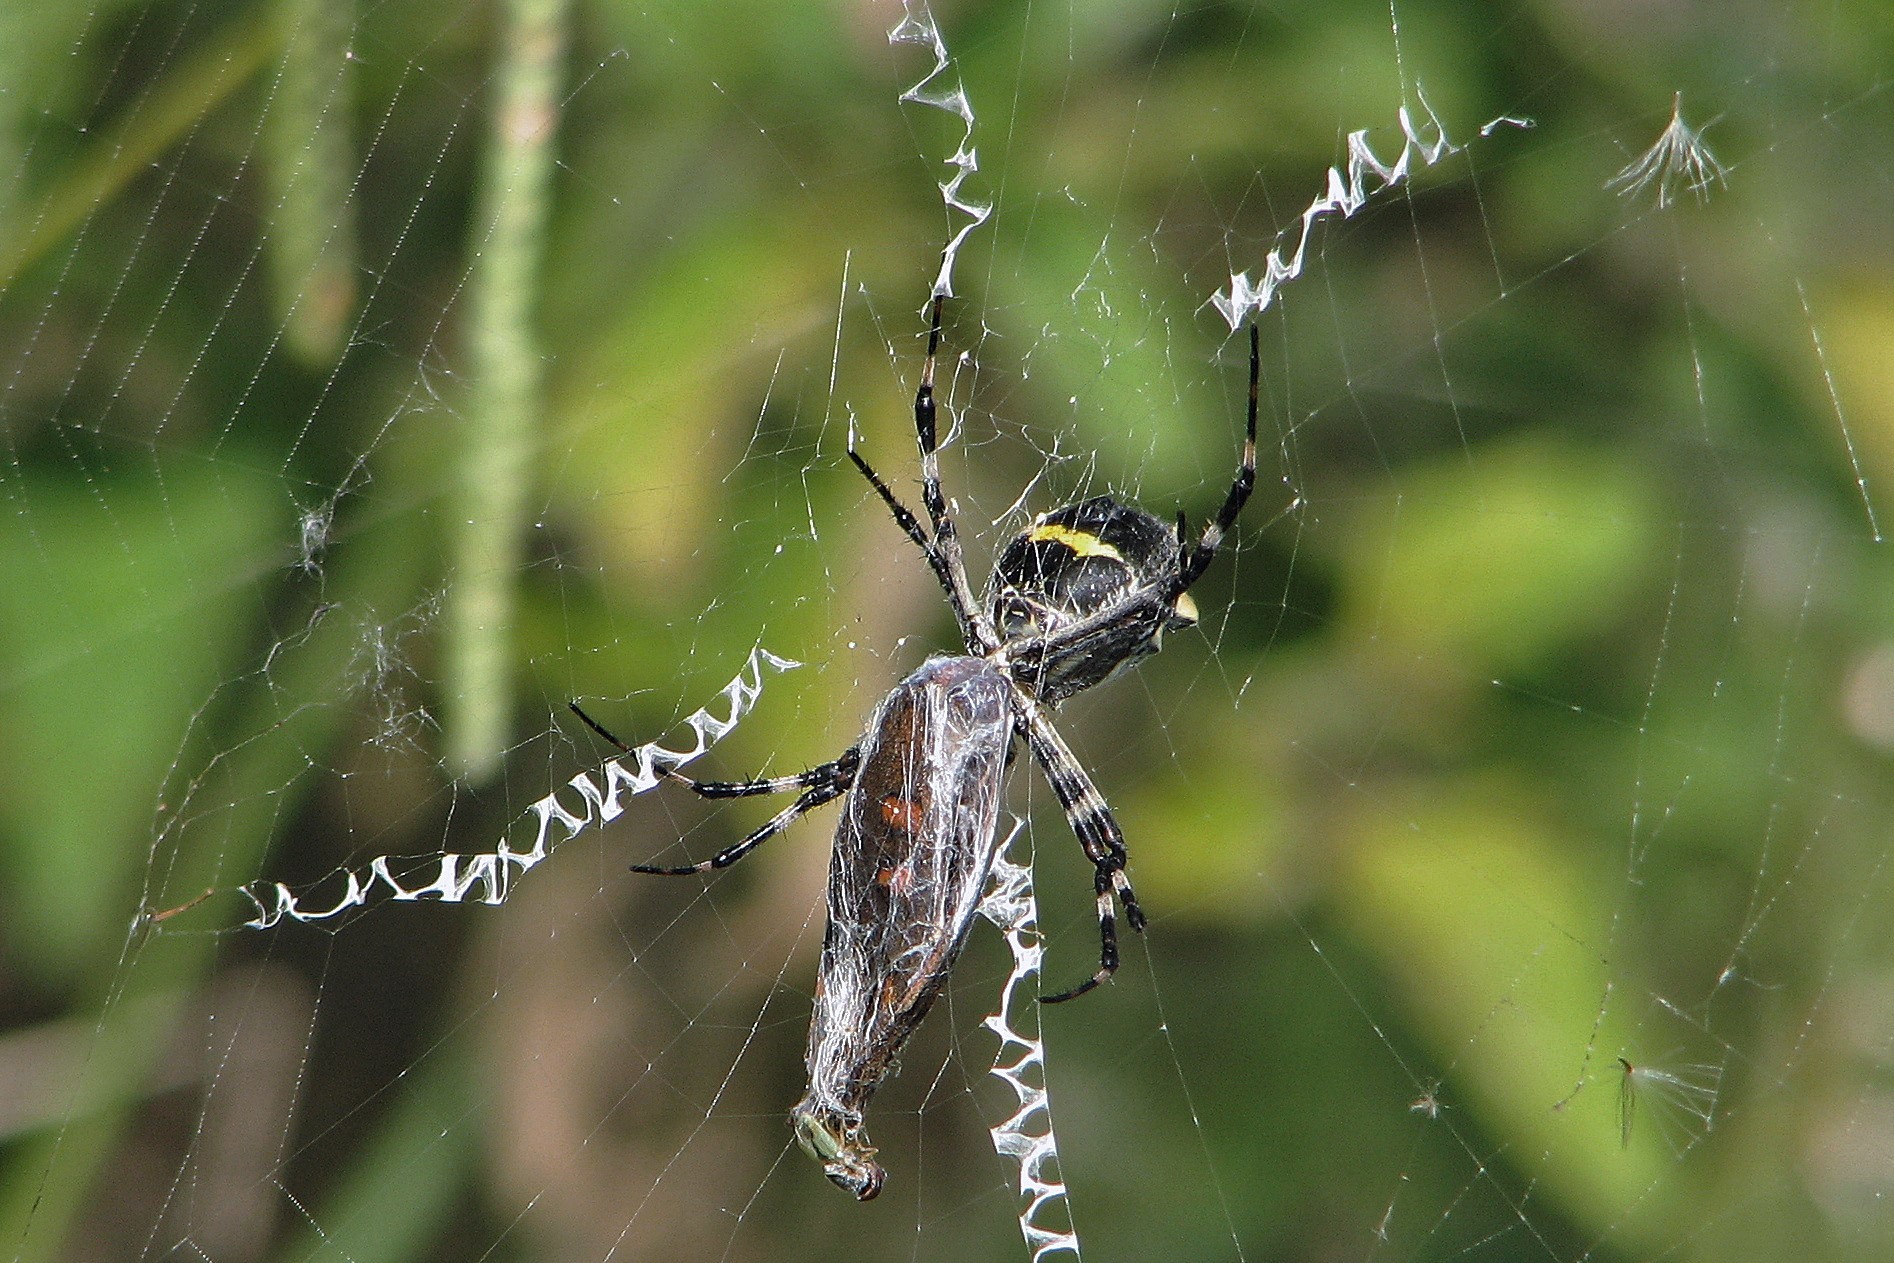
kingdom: Animalia
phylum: Arthropoda
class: Arachnida
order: Araneae
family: Araneidae
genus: Argiope
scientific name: Argiope argentata
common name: Orb weavers
